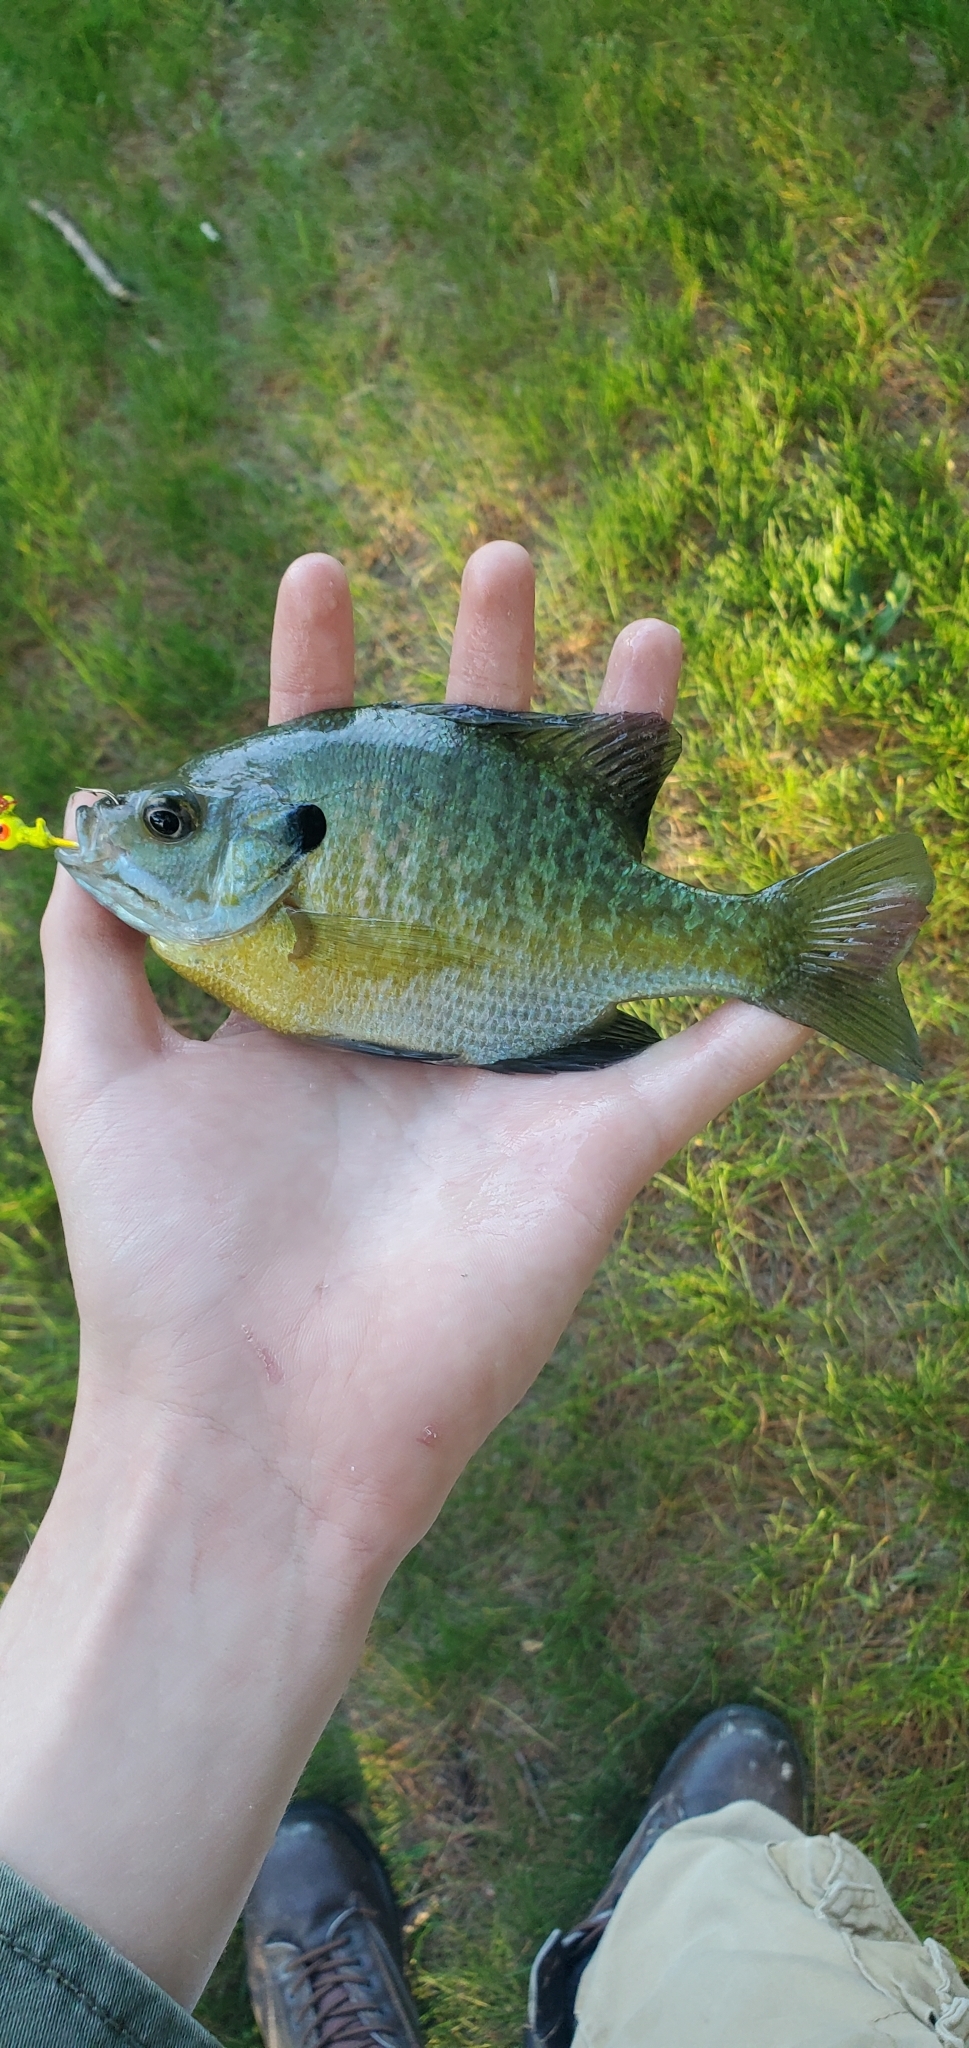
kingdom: Animalia
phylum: Chordata
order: Perciformes
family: Centrarchidae
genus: Lepomis
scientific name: Lepomis macrochirus
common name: Bluegill
